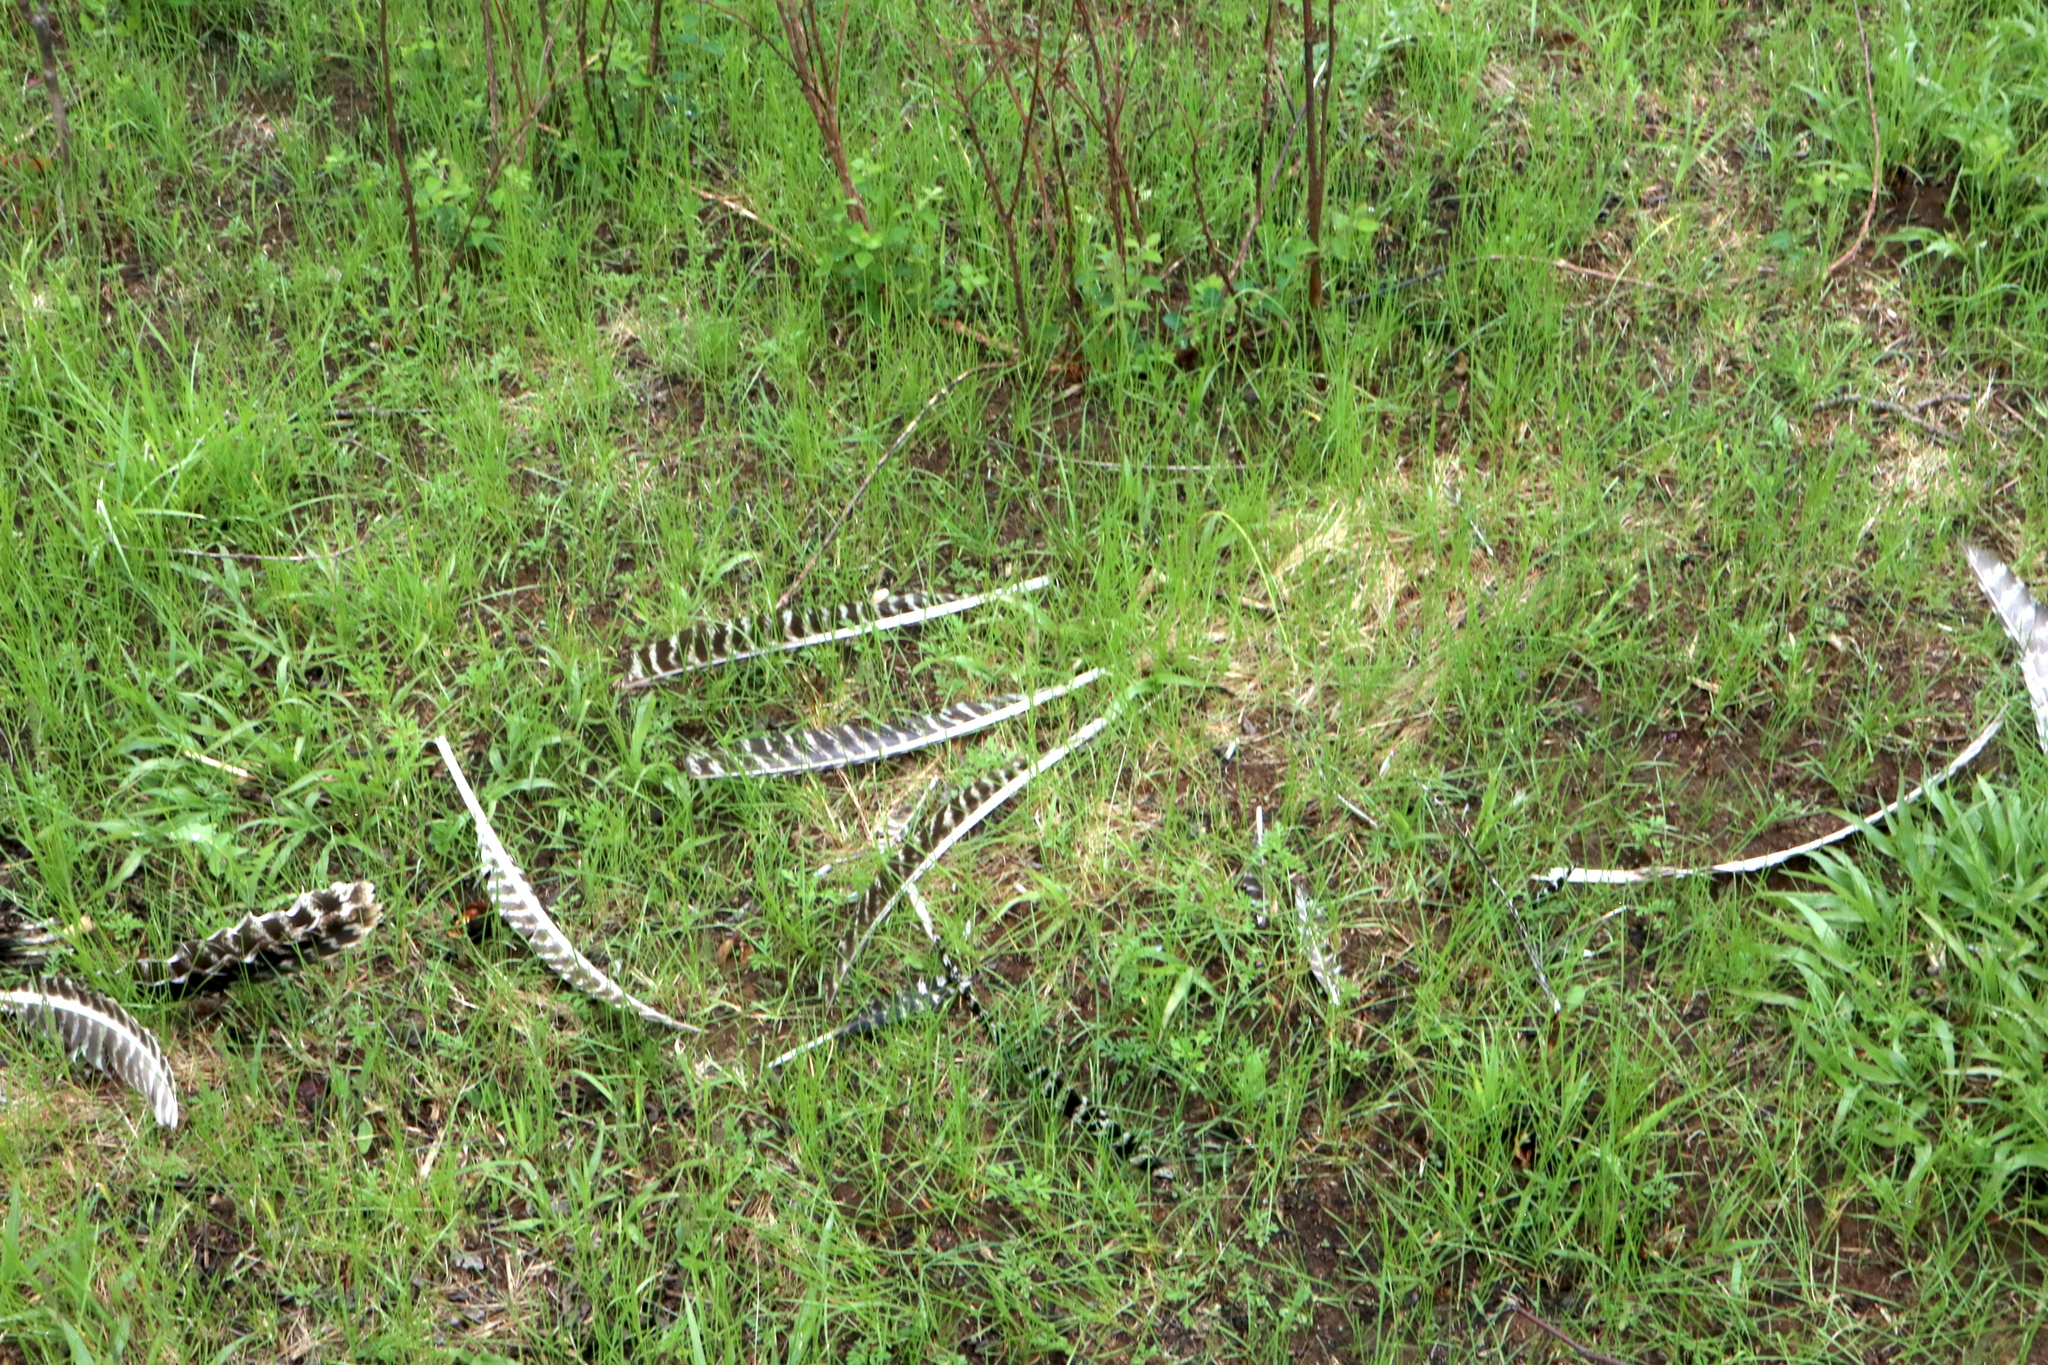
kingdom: Animalia
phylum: Chordata
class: Aves
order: Galliformes
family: Phasianidae
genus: Meleagris
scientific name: Meleagris gallopavo
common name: Wild turkey
